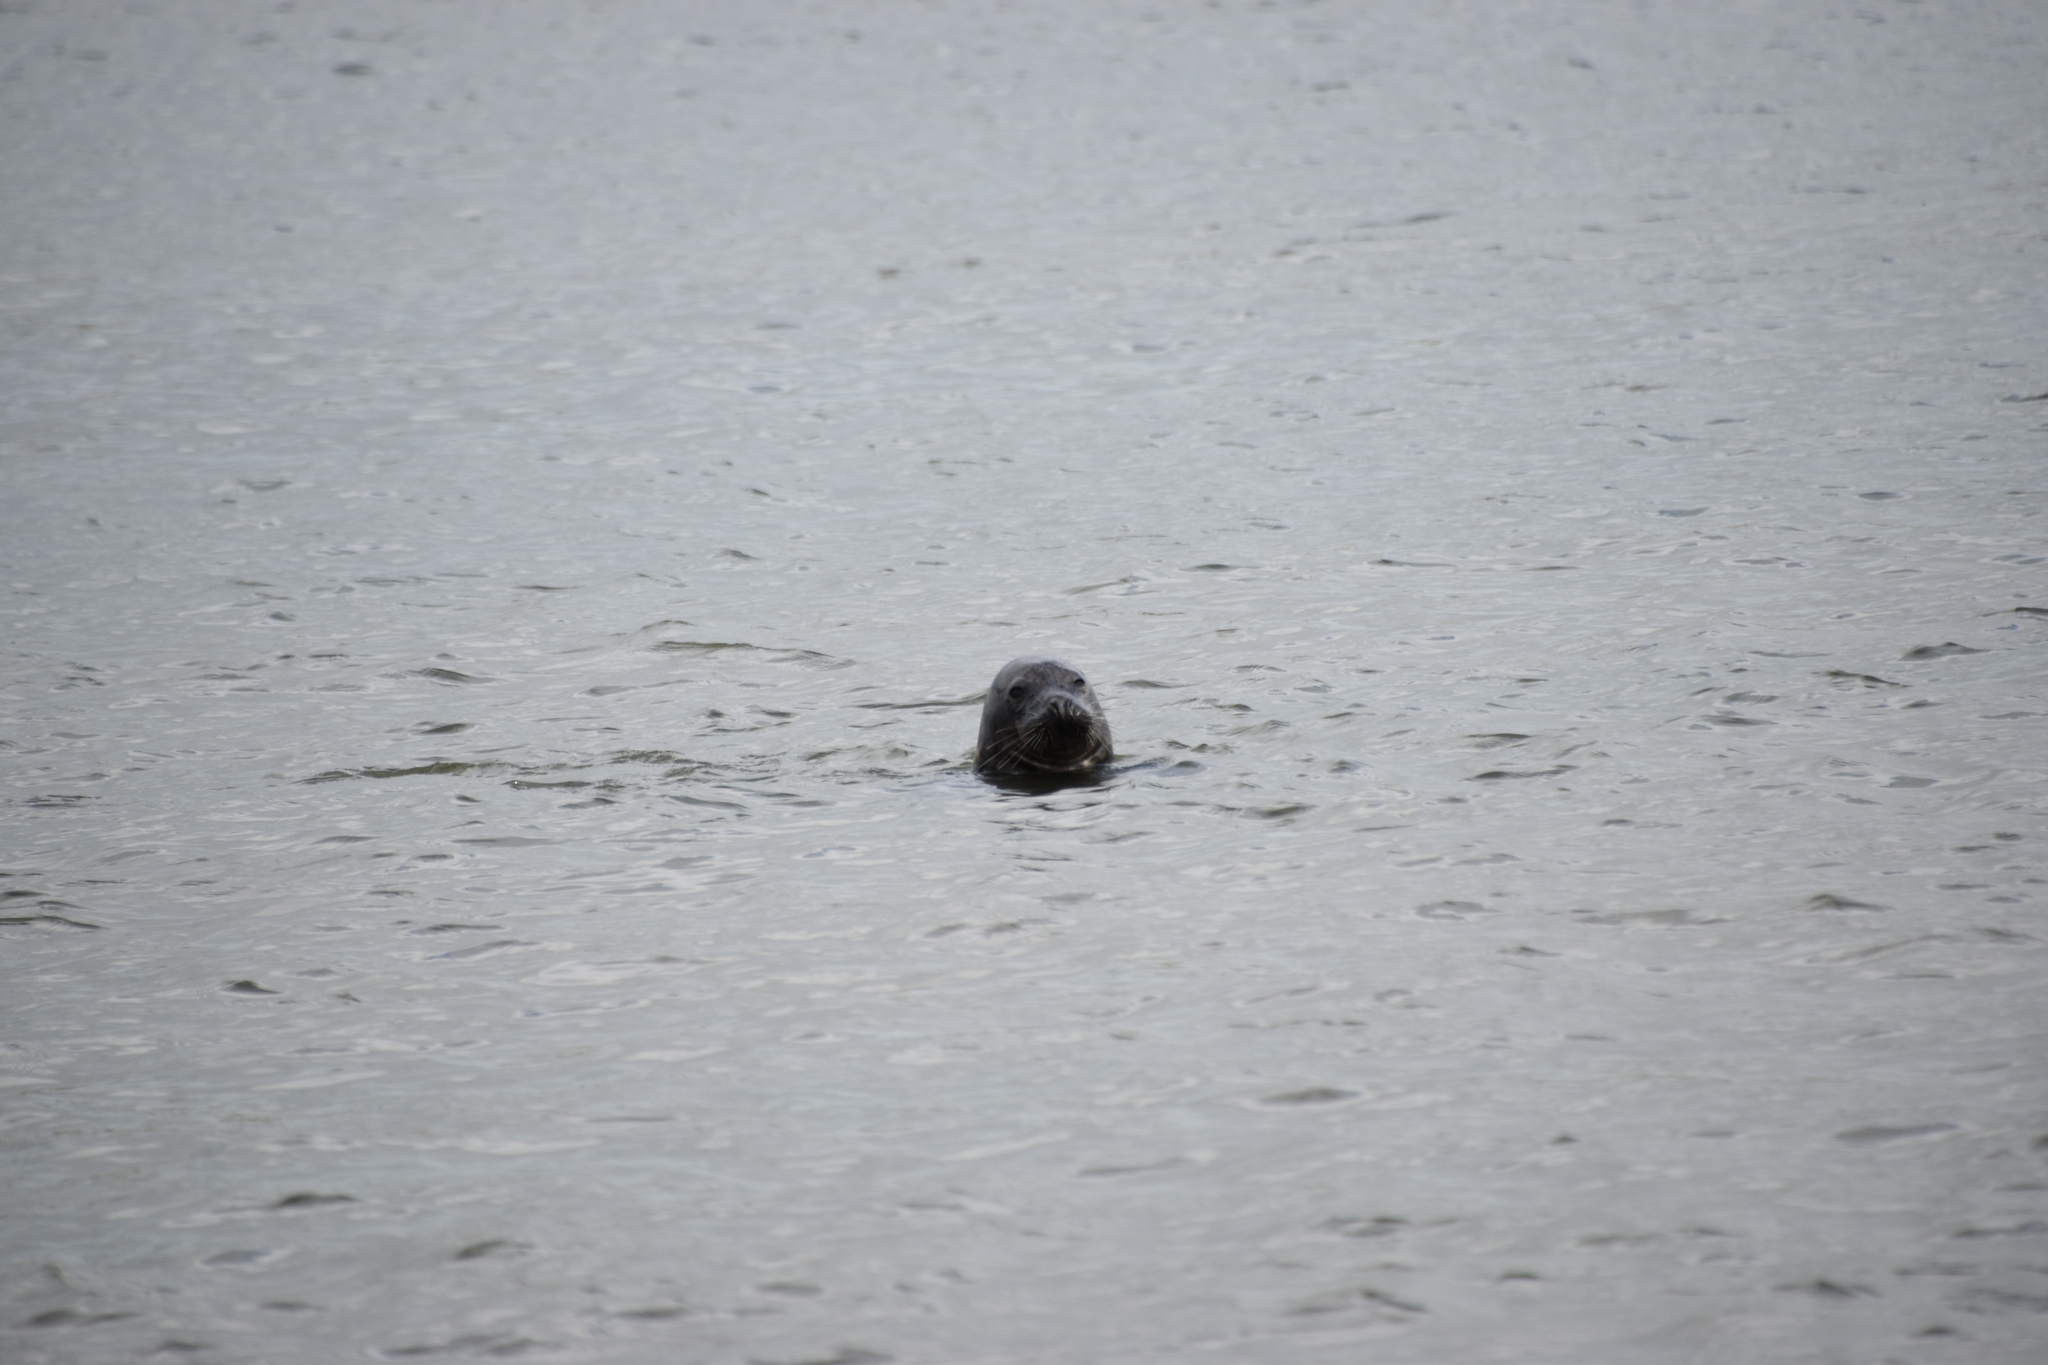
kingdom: Animalia
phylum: Chordata
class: Mammalia
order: Carnivora
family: Phocidae
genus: Halichoerus
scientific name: Halichoerus grypus
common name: Grey seal
